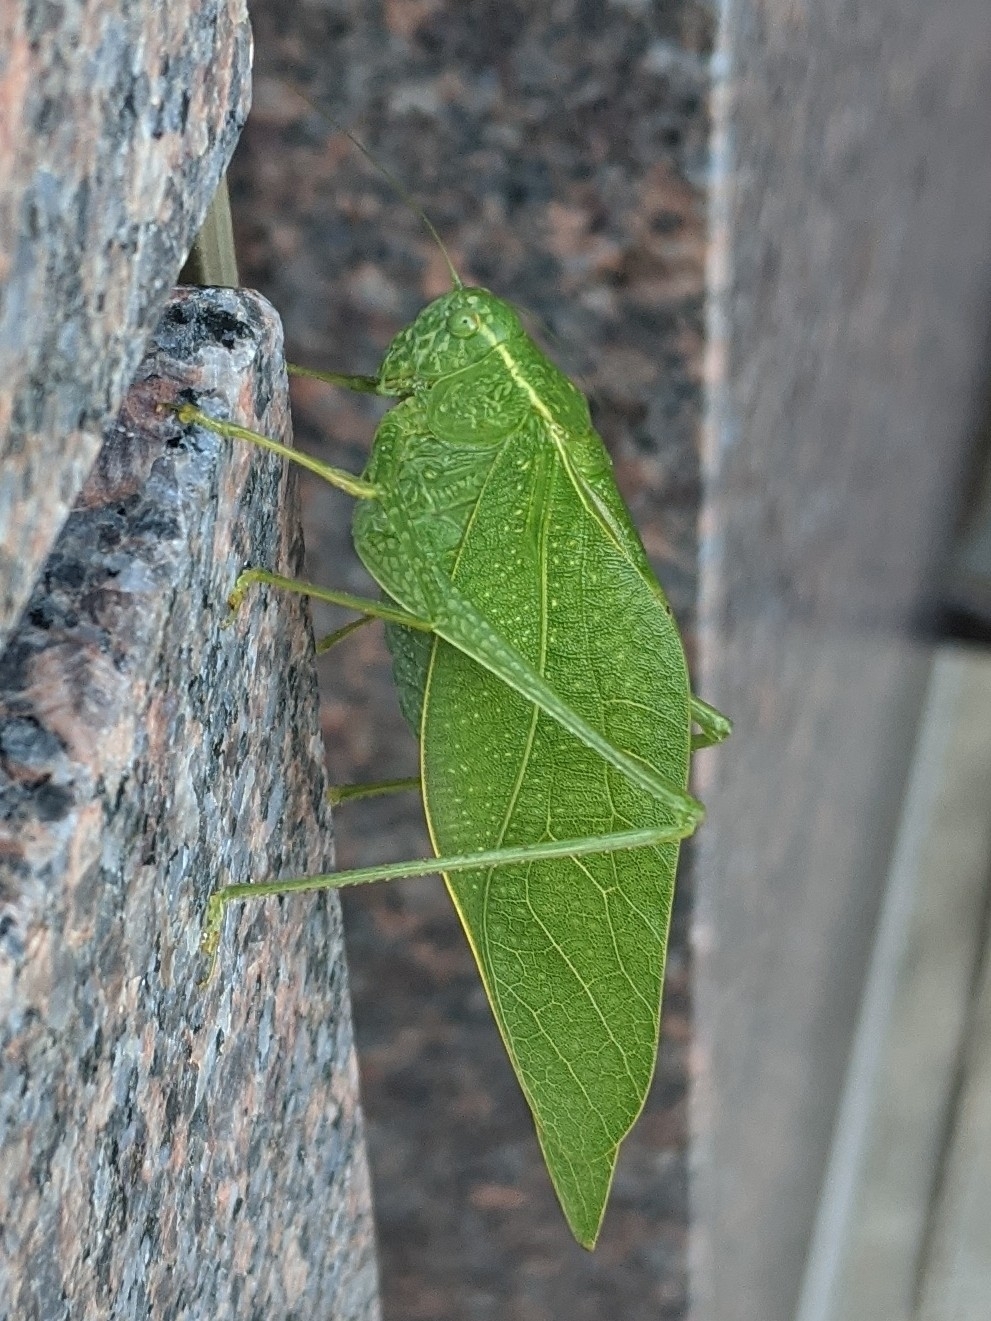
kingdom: Animalia
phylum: Arthropoda
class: Insecta
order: Orthoptera
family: Tettigoniidae
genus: Microcentrum
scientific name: Microcentrum rhombifolium
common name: Broad-winged katydid
